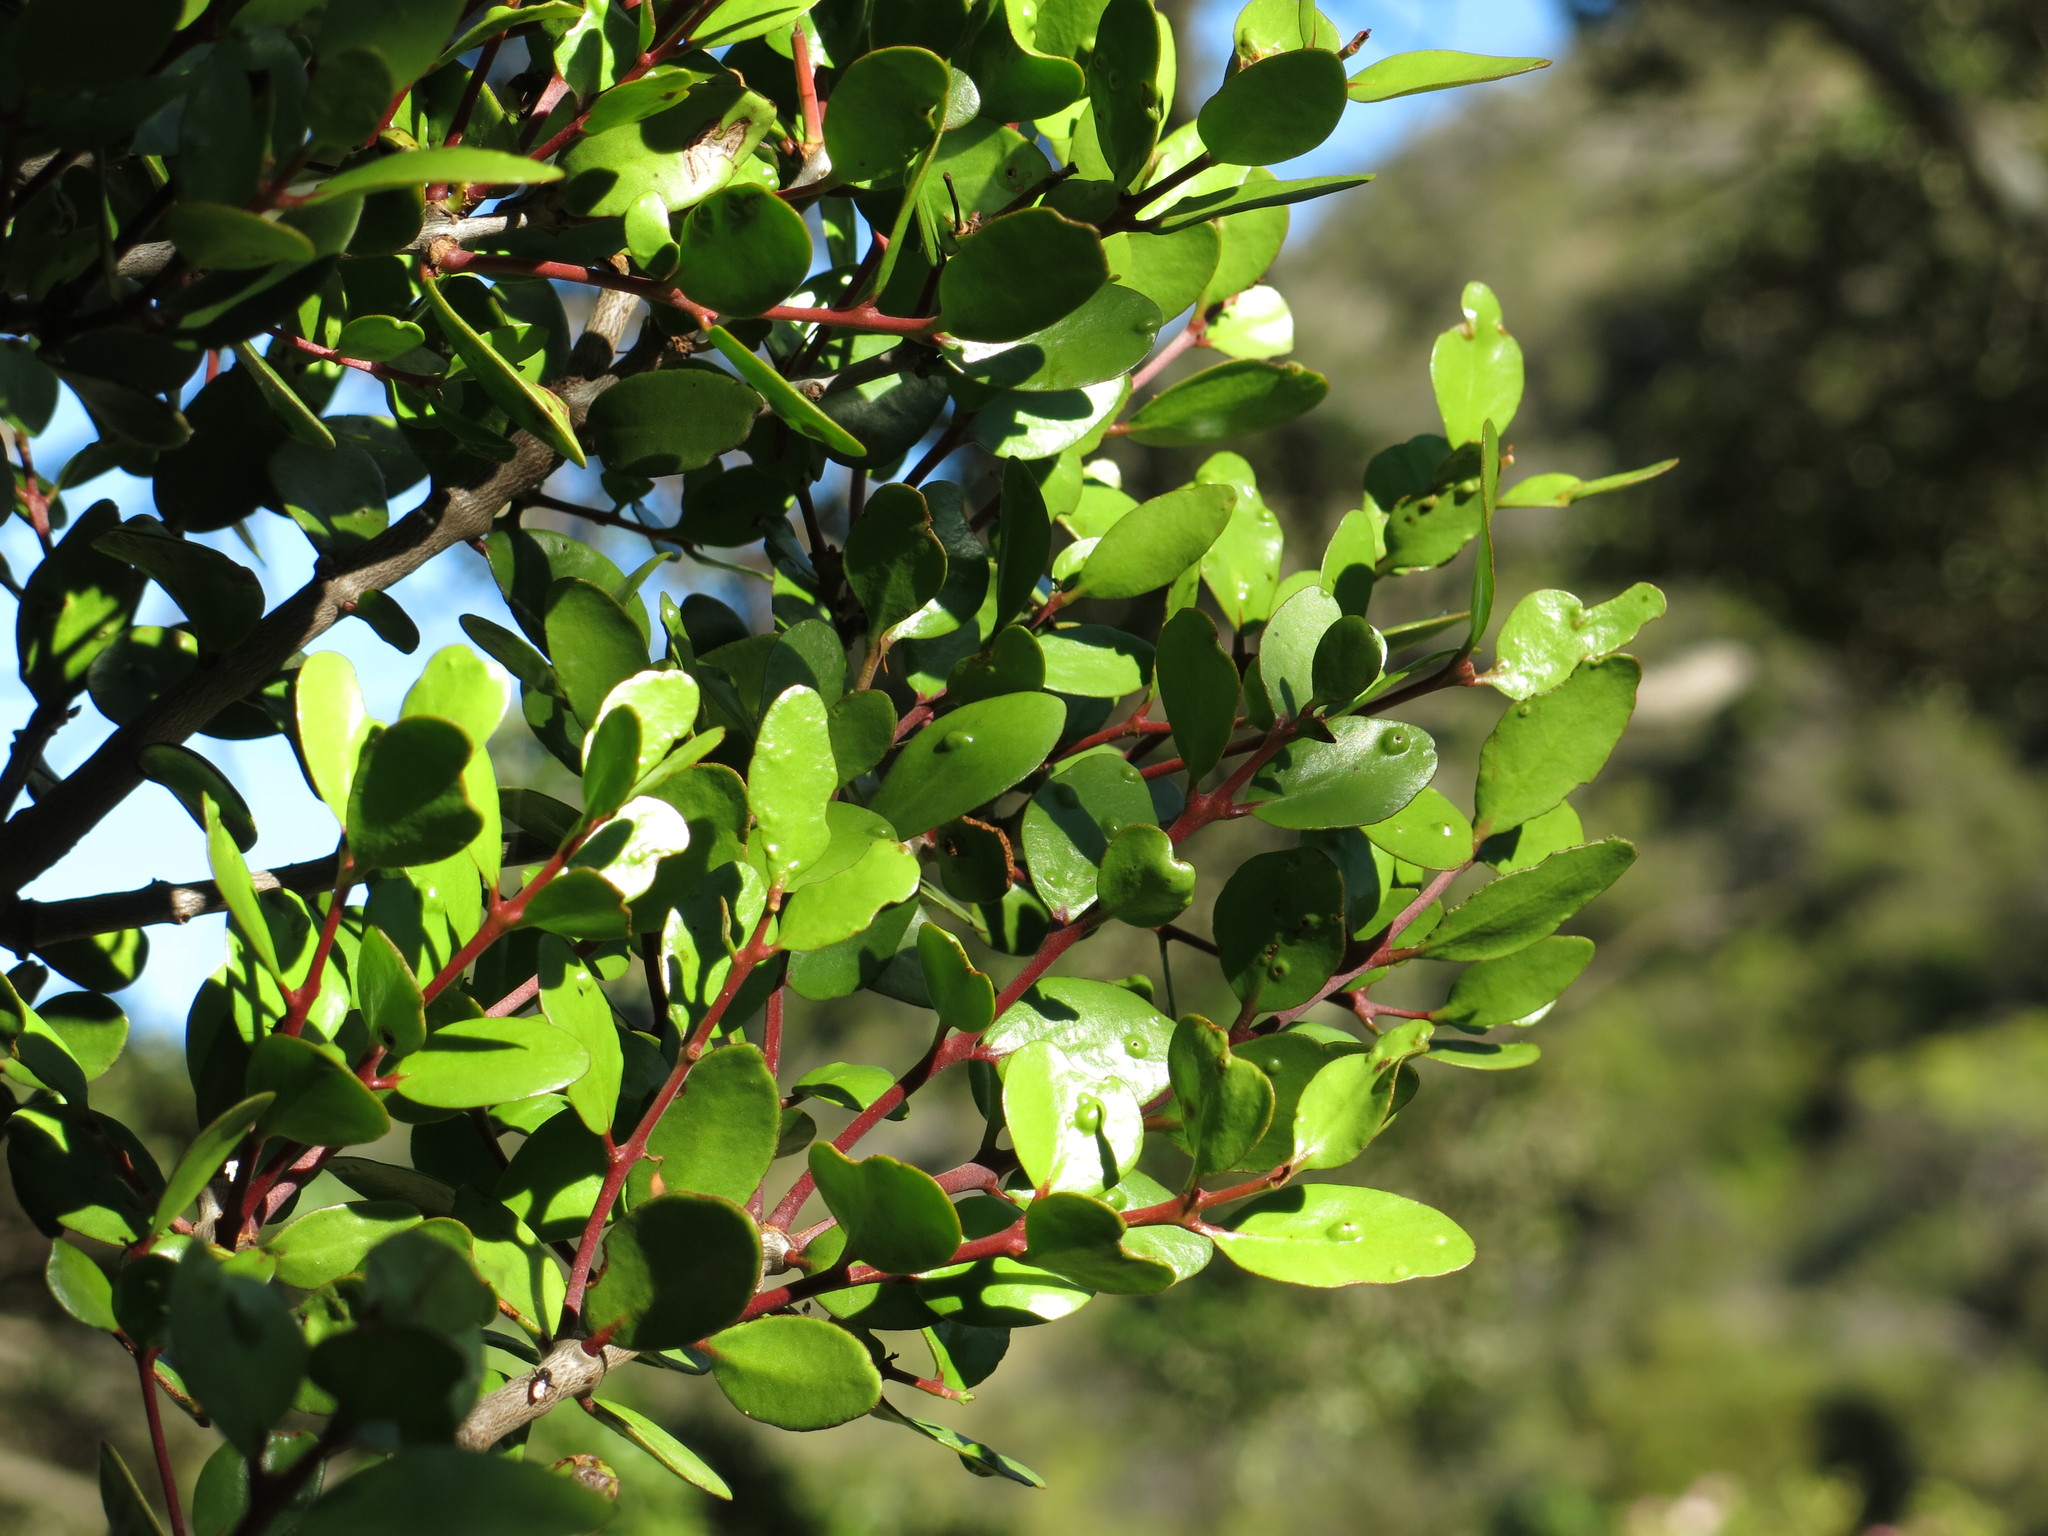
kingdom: Plantae
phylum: Tracheophyta
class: Magnoliopsida
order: Santalales
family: Loranthaceae
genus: Peraxilla
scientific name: Peraxilla tetrapetala
